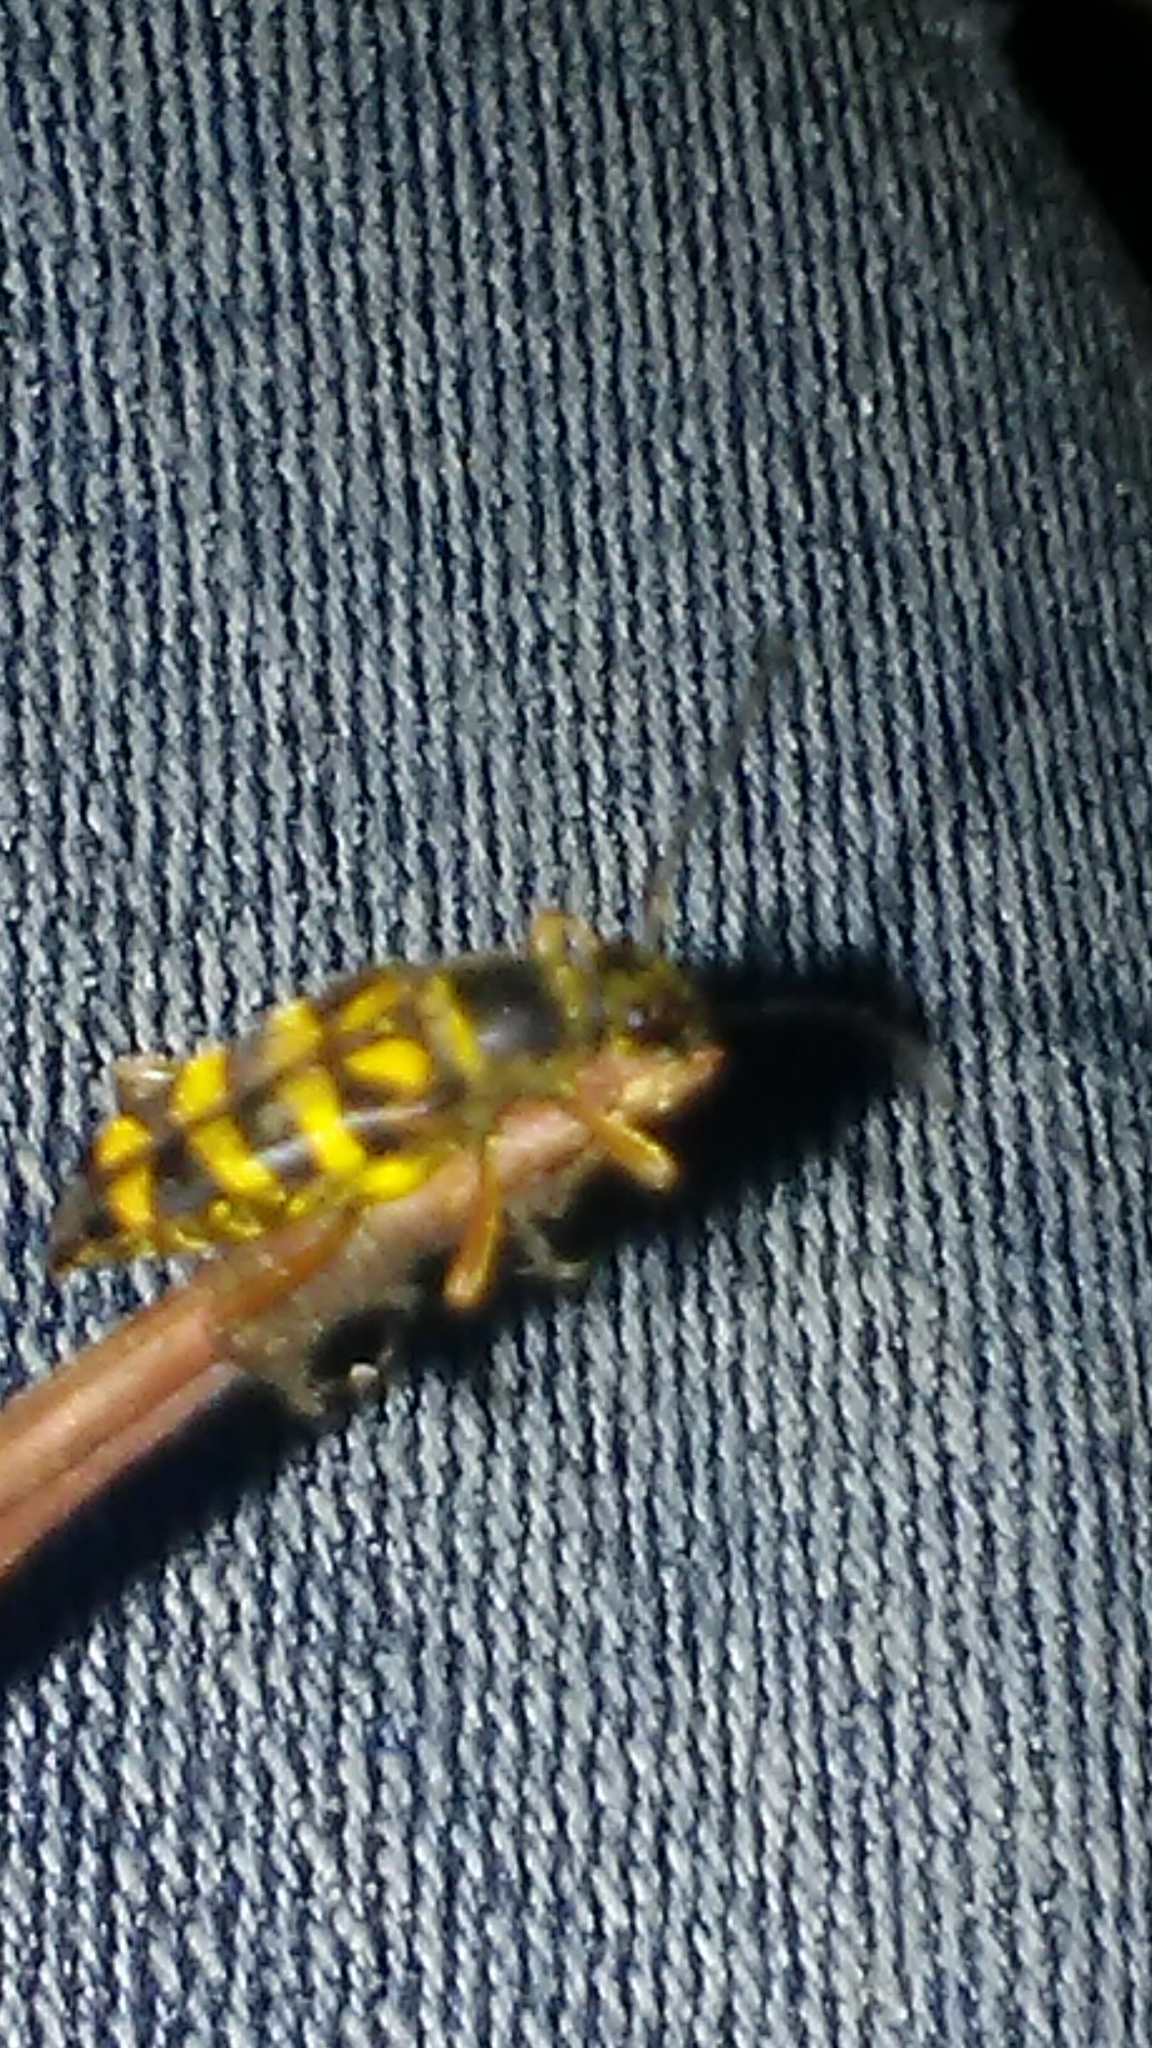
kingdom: Animalia
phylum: Arthropoda
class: Insecta
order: Coleoptera
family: Cerambycidae
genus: Typocerus
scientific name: Typocerus zebra
